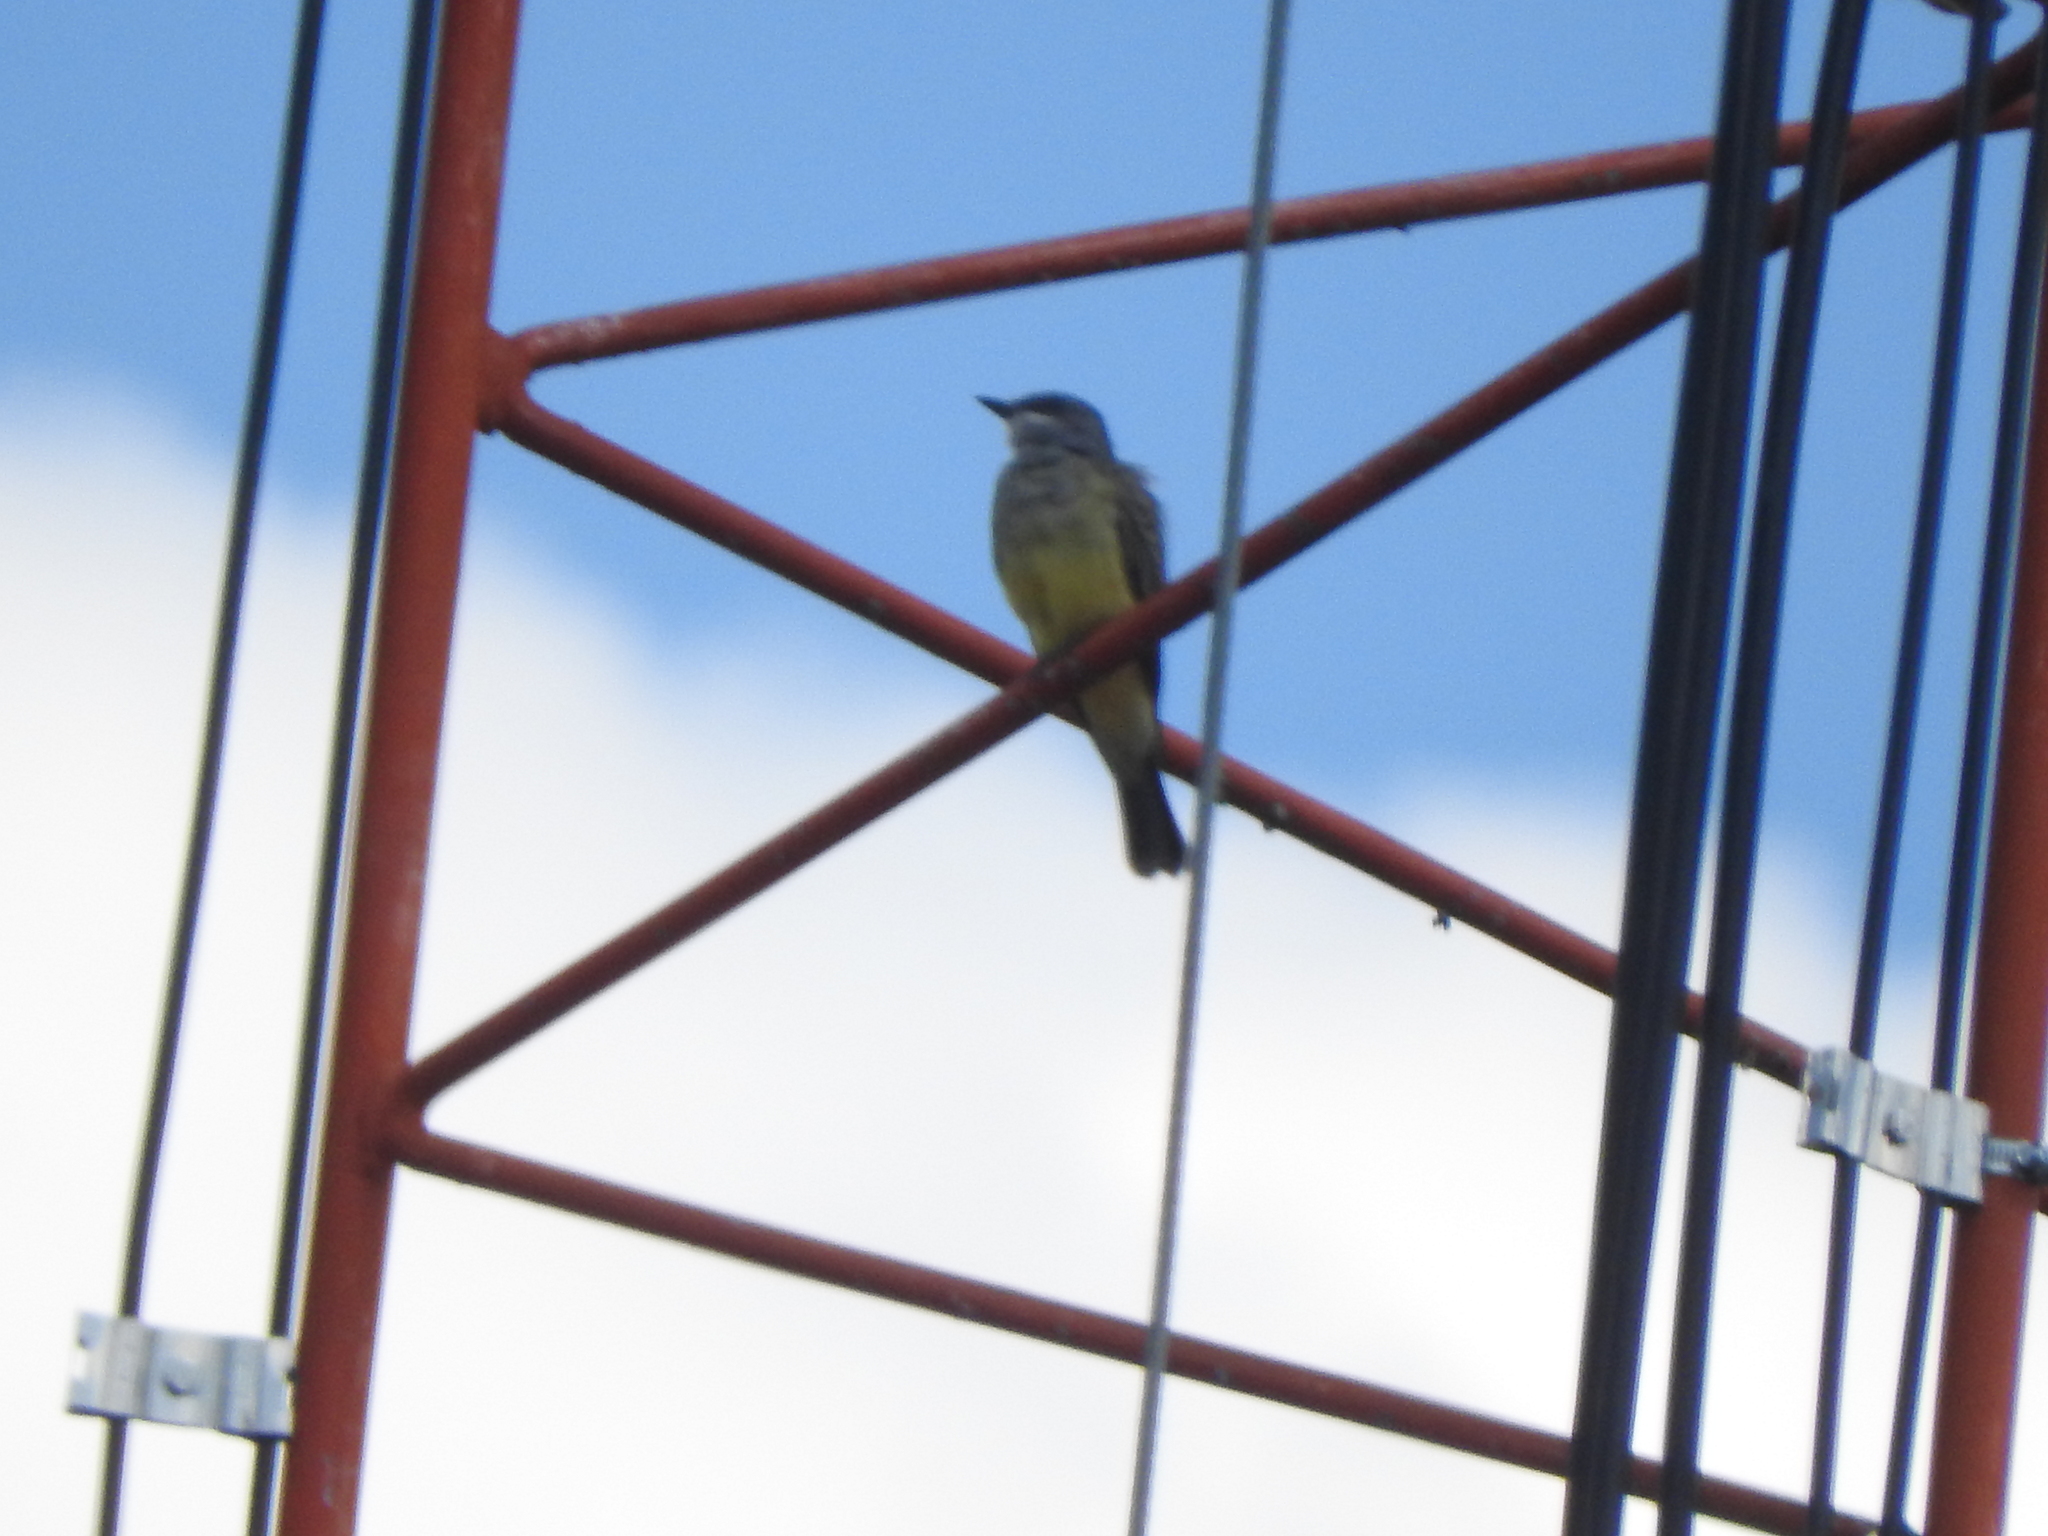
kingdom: Animalia
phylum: Chordata
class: Aves
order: Passeriformes
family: Tyrannidae
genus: Tyrannus
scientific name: Tyrannus vociferans
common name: Cassin's kingbird
